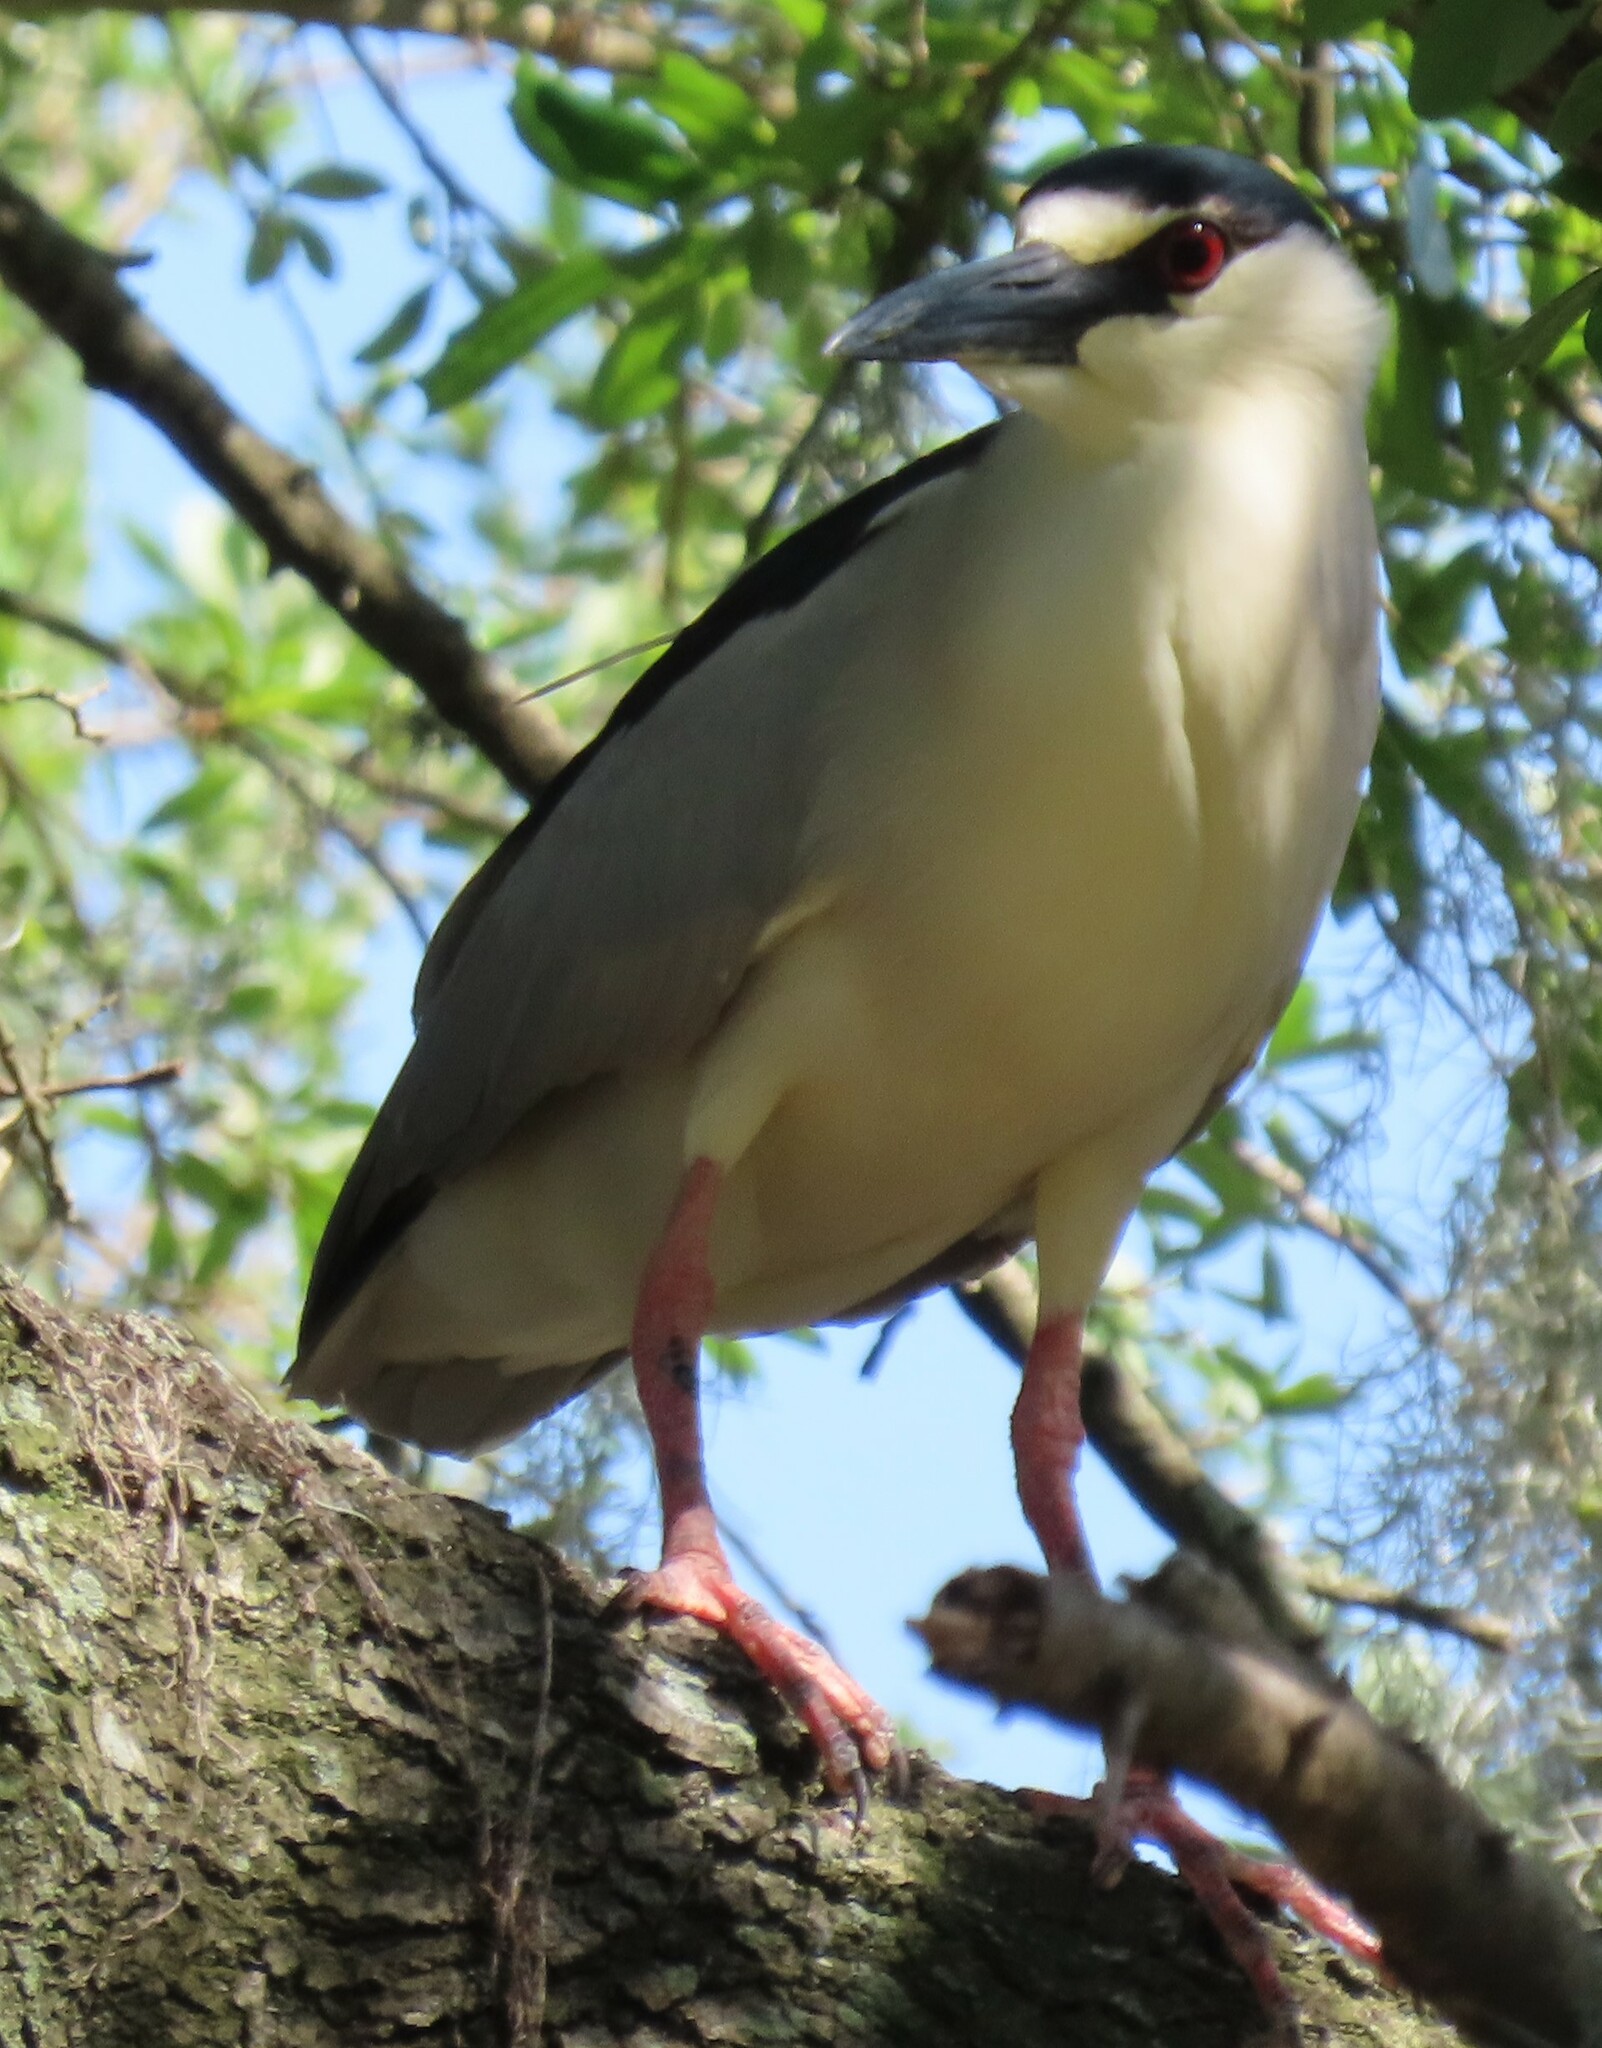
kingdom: Animalia
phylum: Chordata
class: Aves
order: Pelecaniformes
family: Ardeidae
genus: Nycticorax
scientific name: Nycticorax nycticorax
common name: Black-crowned night heron
